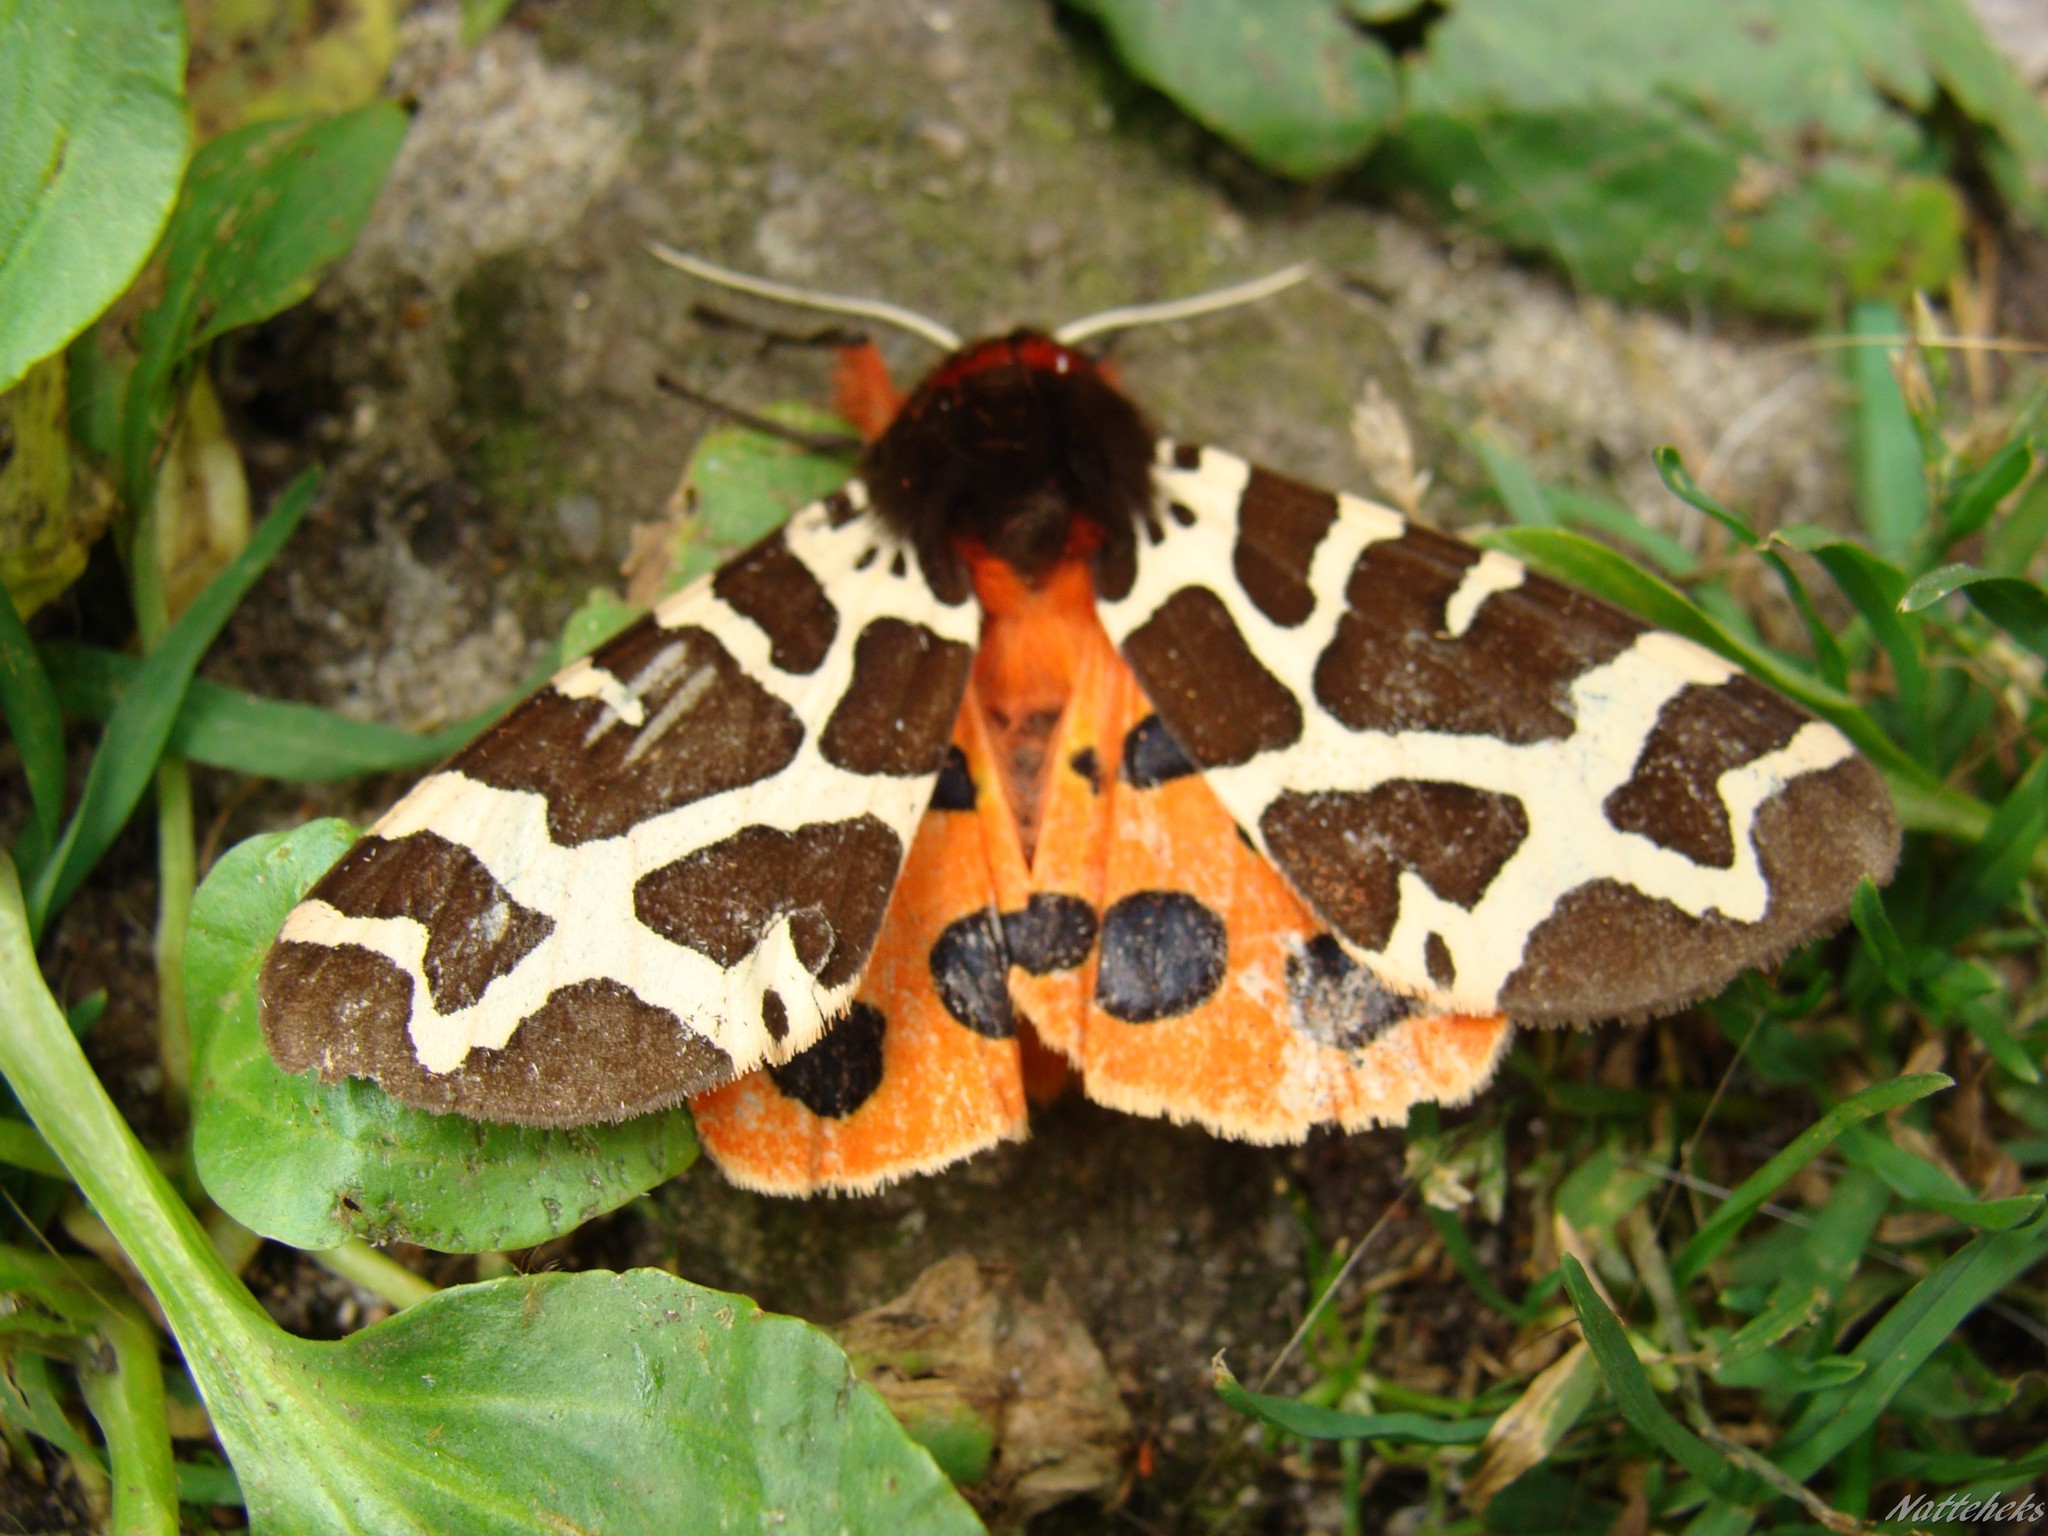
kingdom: Animalia
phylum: Arthropoda
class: Insecta
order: Lepidoptera
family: Erebidae
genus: Arctia
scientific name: Arctia caja
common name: Garden tiger
